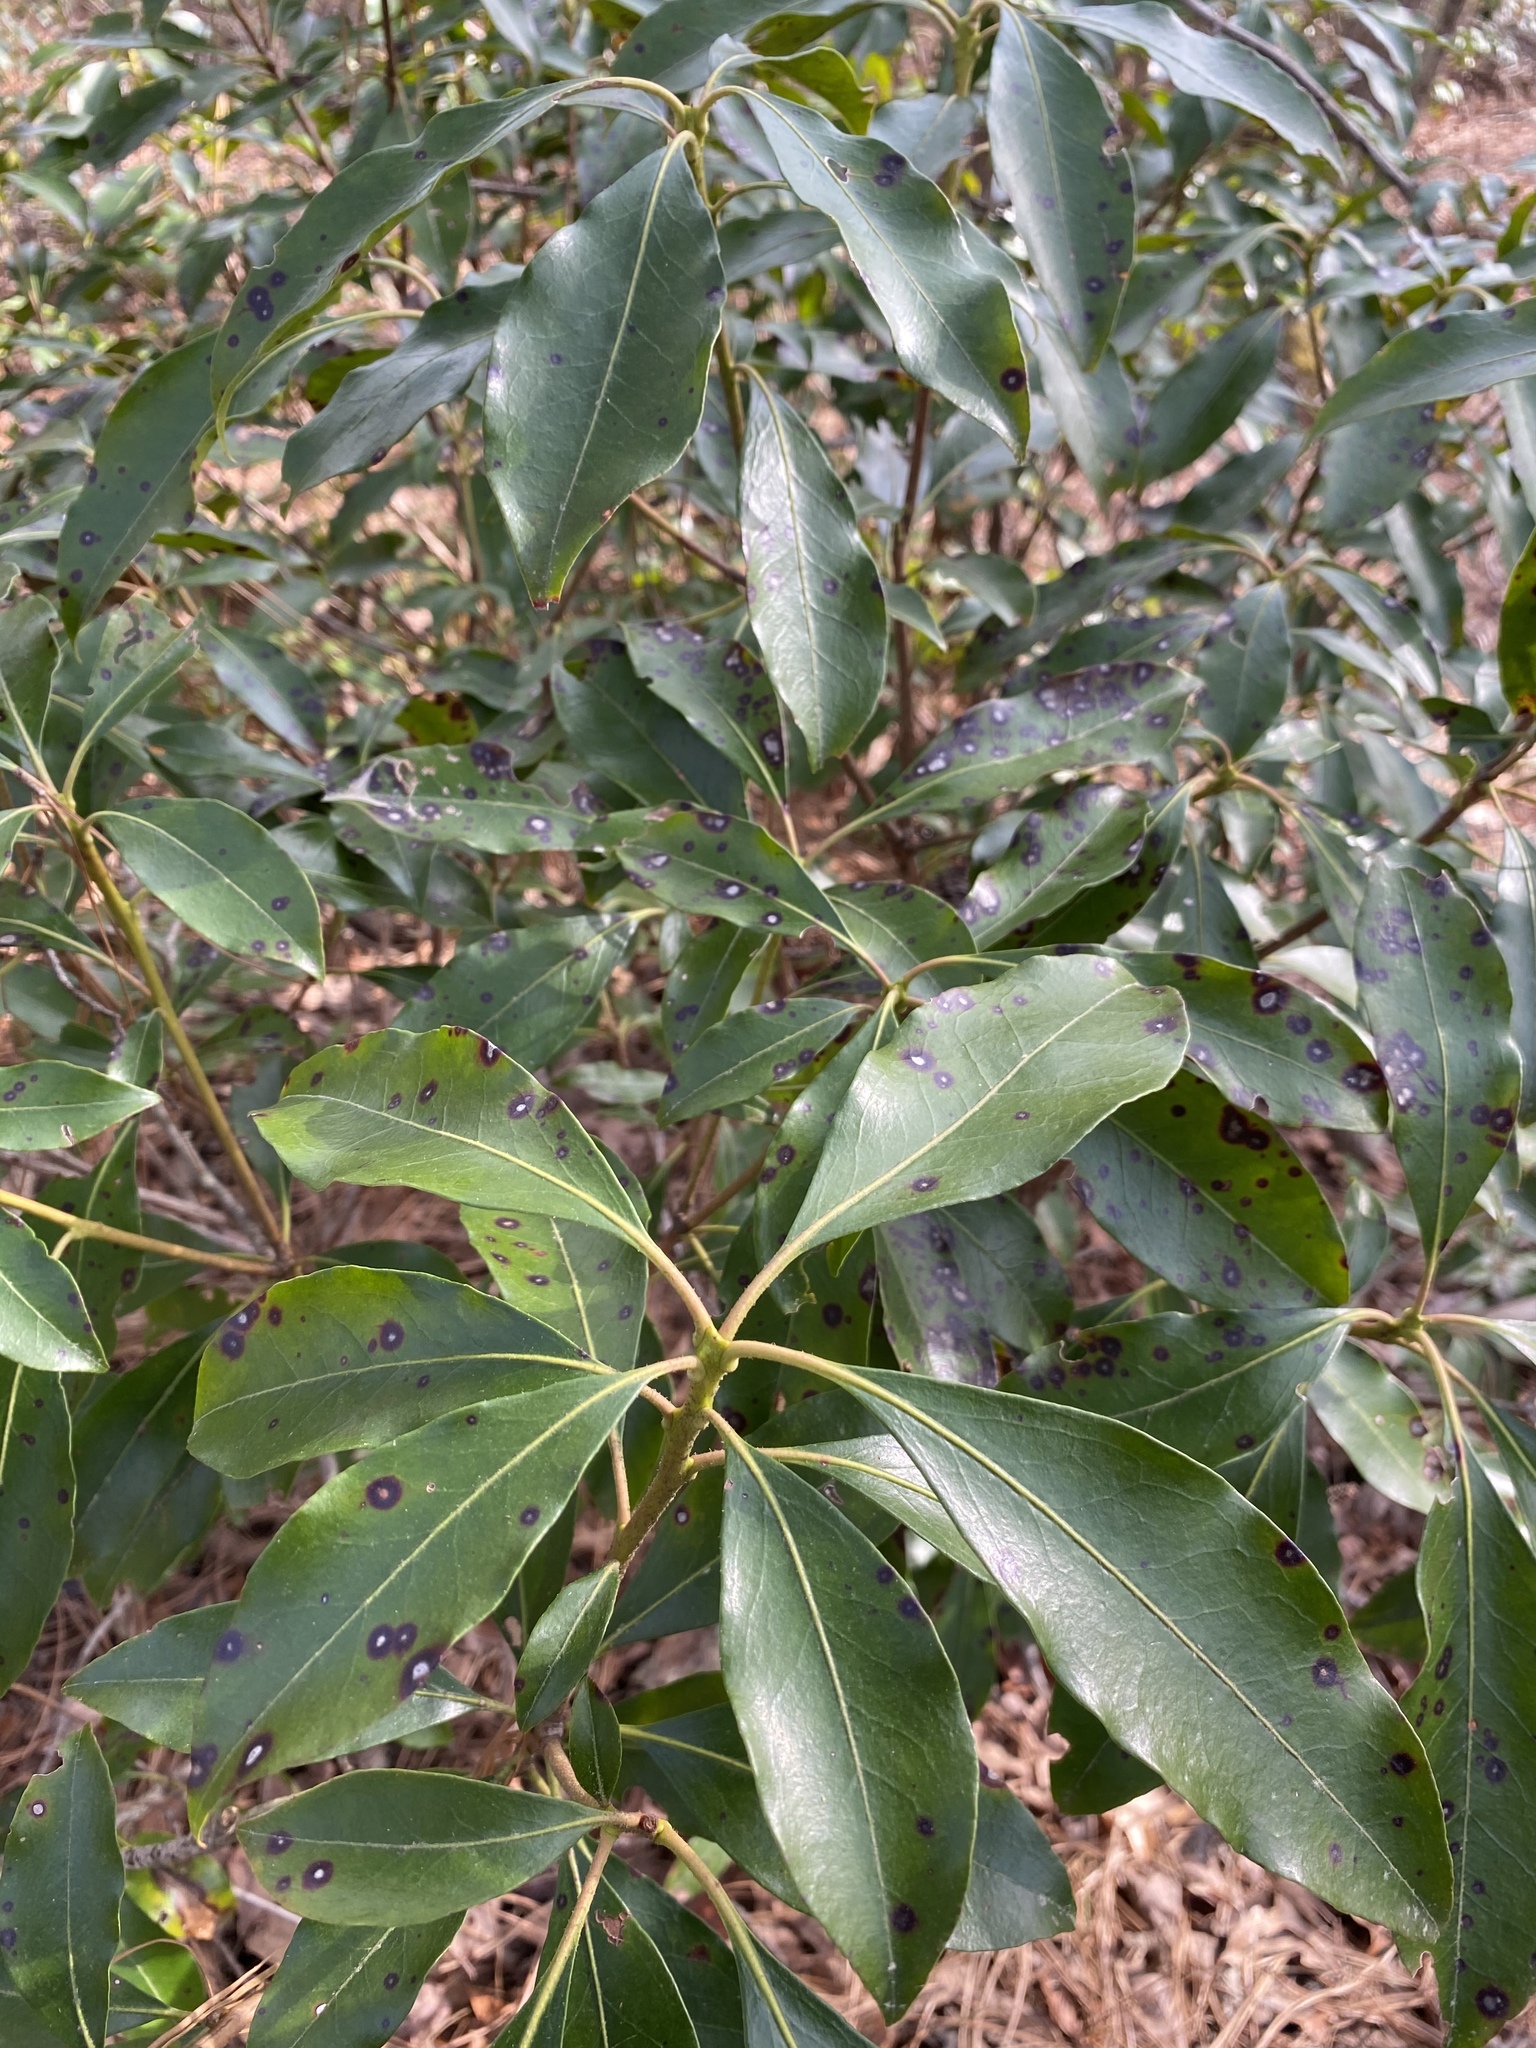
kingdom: Plantae
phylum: Tracheophyta
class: Magnoliopsida
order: Ericales
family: Ericaceae
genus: Kalmia
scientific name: Kalmia latifolia
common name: Mountain-laurel
